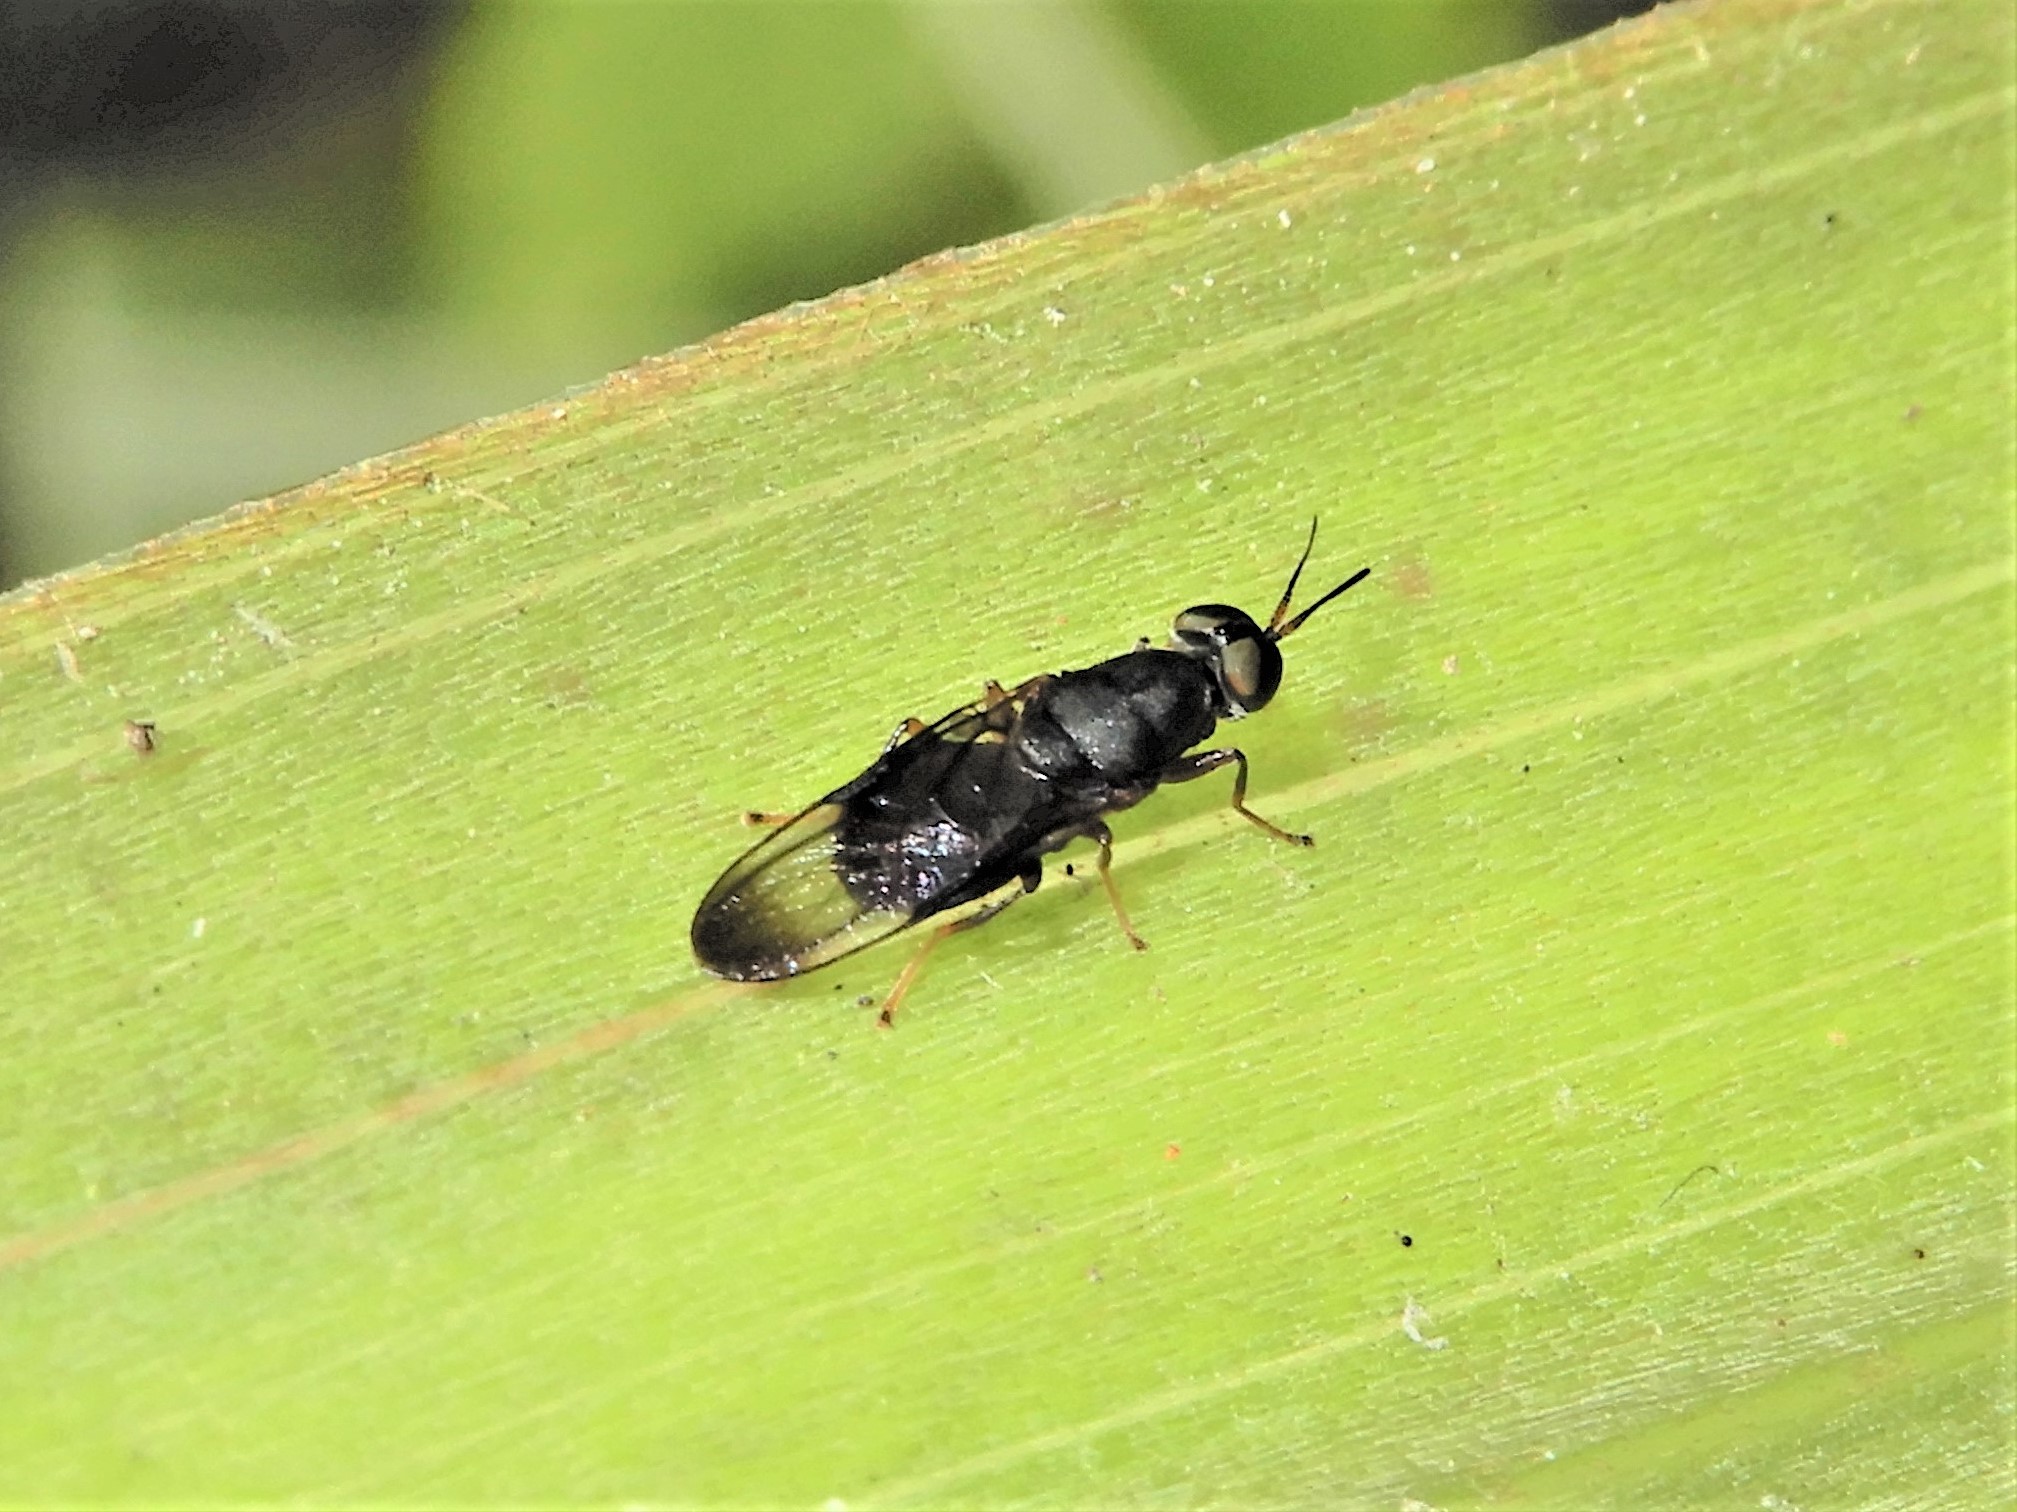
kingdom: Animalia
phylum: Arthropoda
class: Insecta
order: Diptera
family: Stratiomyidae
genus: Dysbiota
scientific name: Dysbiota peregrina
